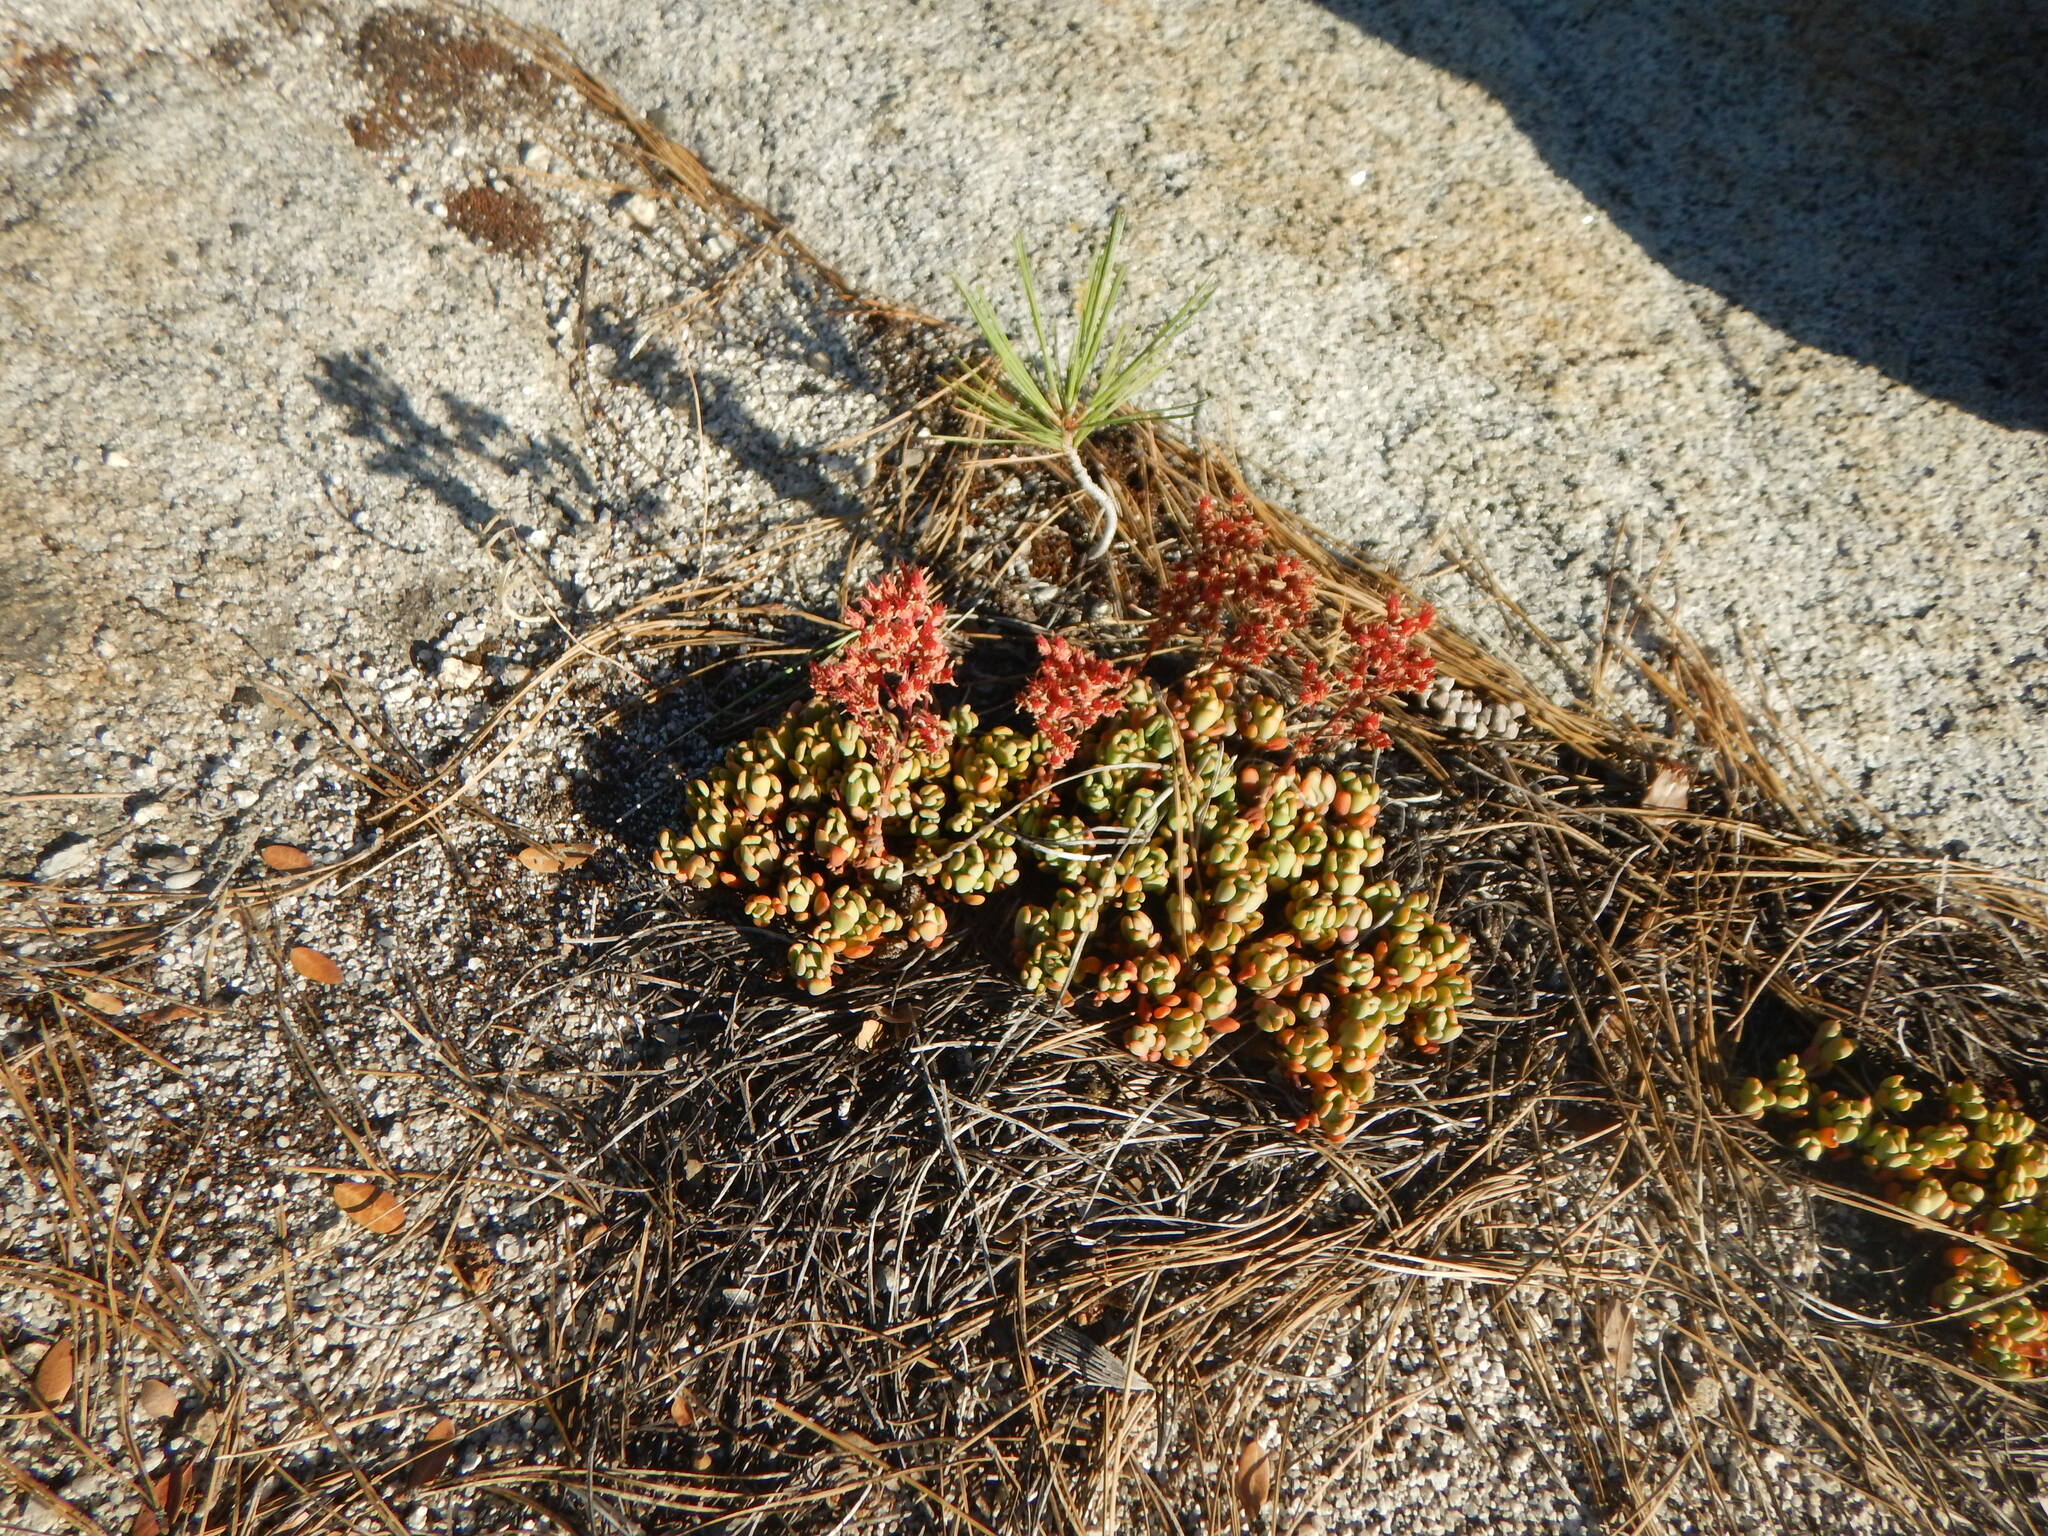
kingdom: Plantae
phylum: Tracheophyta
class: Magnoliopsida
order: Saxifragales
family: Crassulaceae
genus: Sedum
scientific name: Sedum obtusatum
